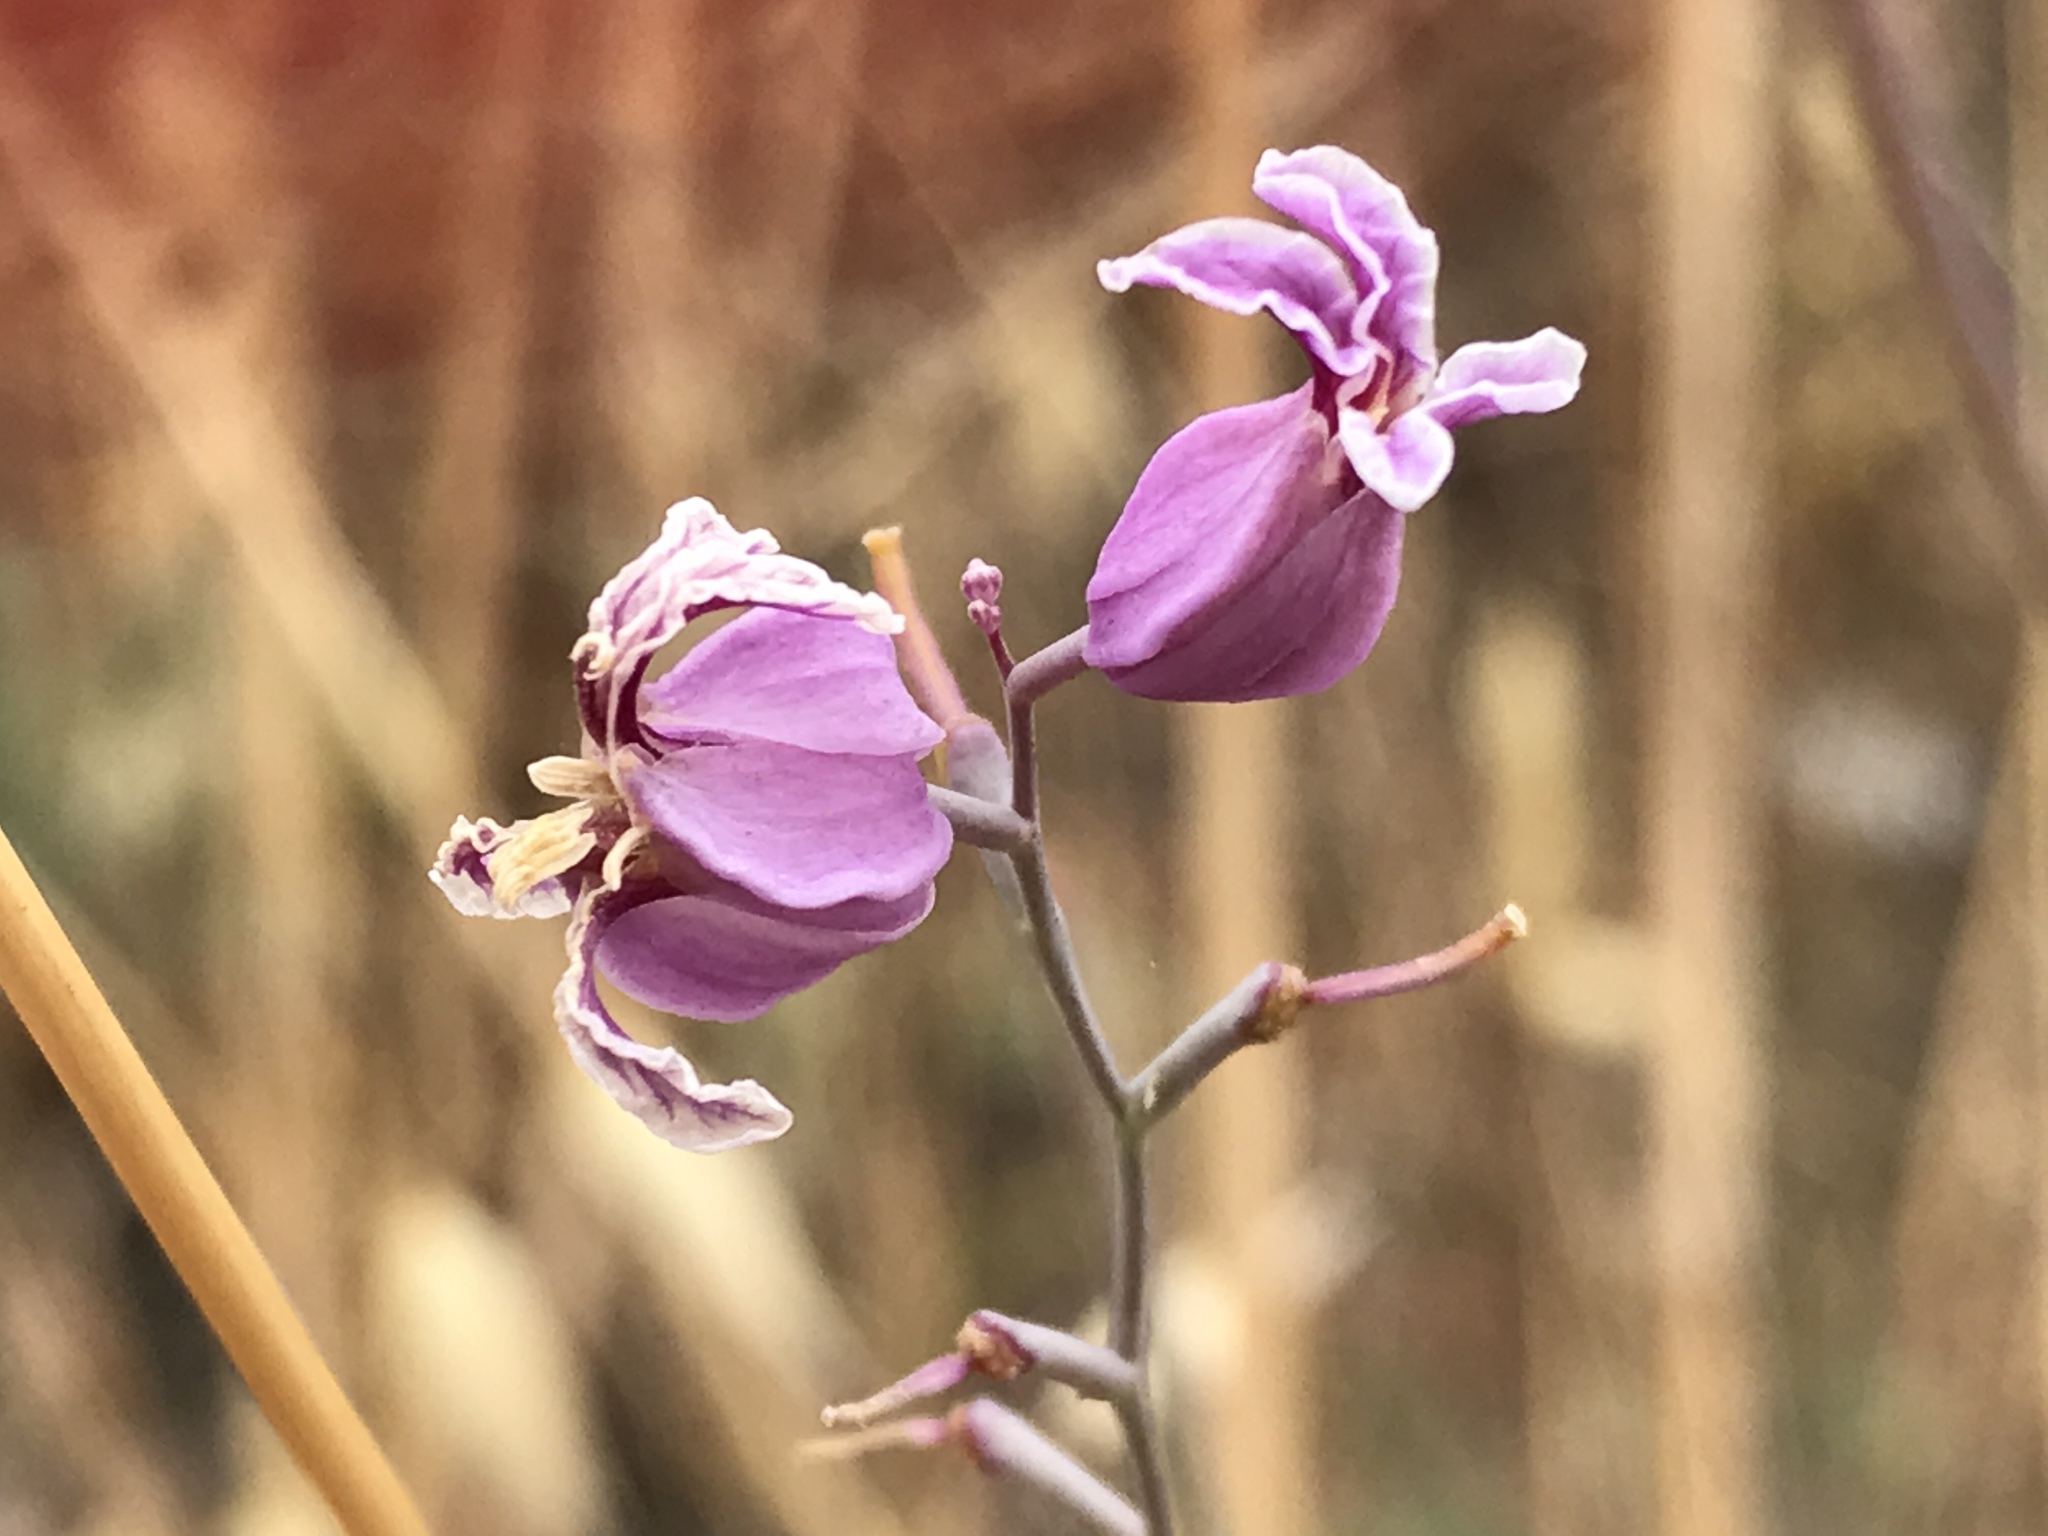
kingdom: Plantae
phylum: Tracheophyta
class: Magnoliopsida
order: Brassicales
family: Brassicaceae
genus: Streptanthus
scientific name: Streptanthus glandulosus
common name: Jewel-flower
